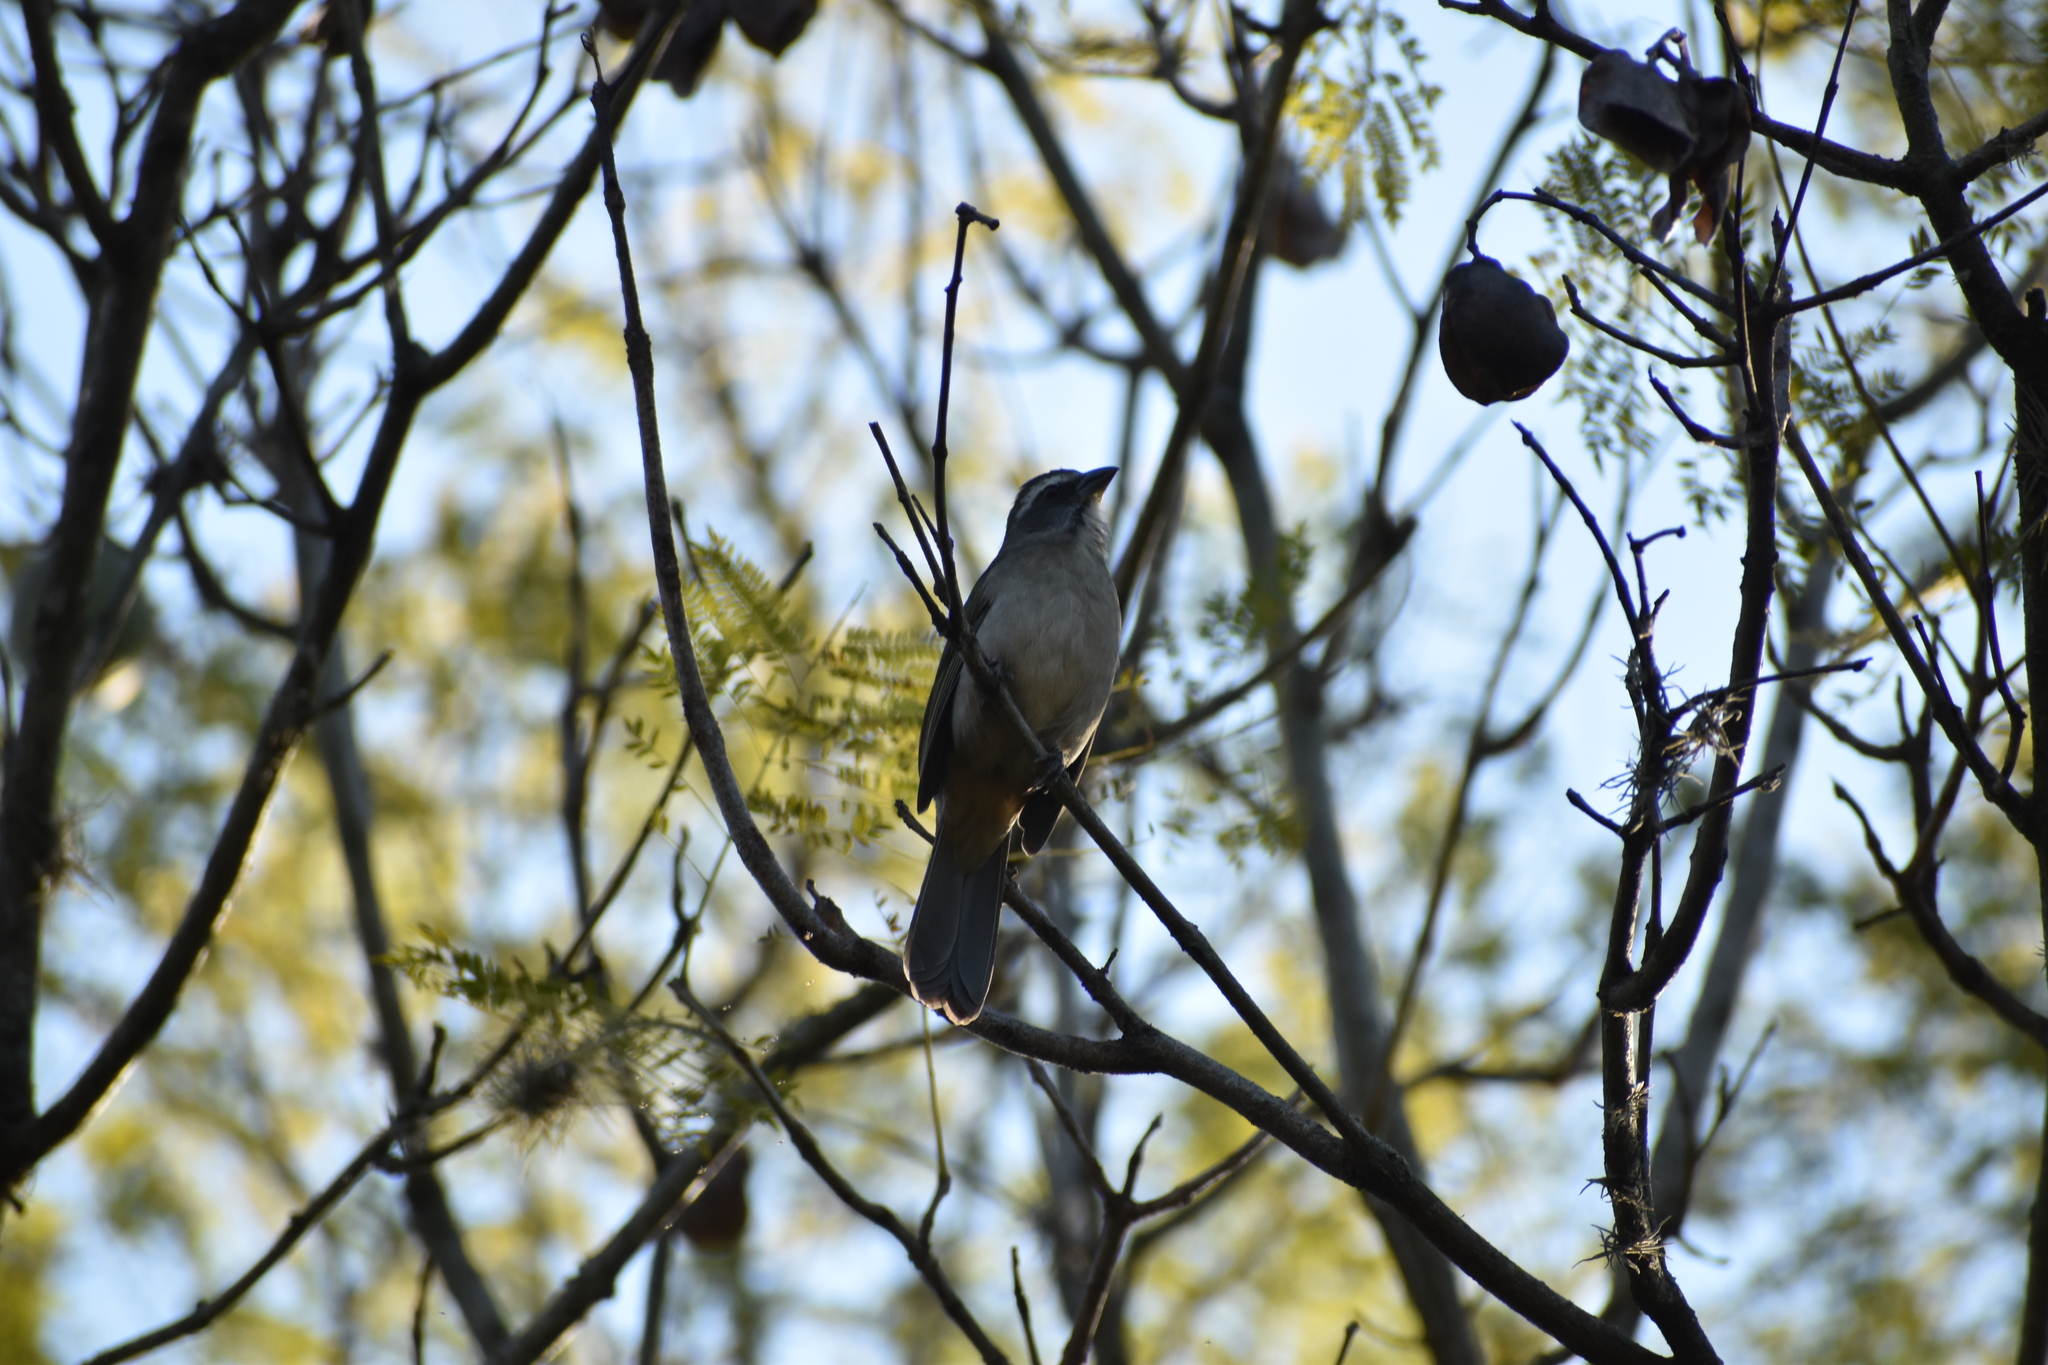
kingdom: Animalia
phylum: Chordata
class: Aves
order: Passeriformes
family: Thraupidae
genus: Saltator
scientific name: Saltator similis
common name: Green-winged saltator
